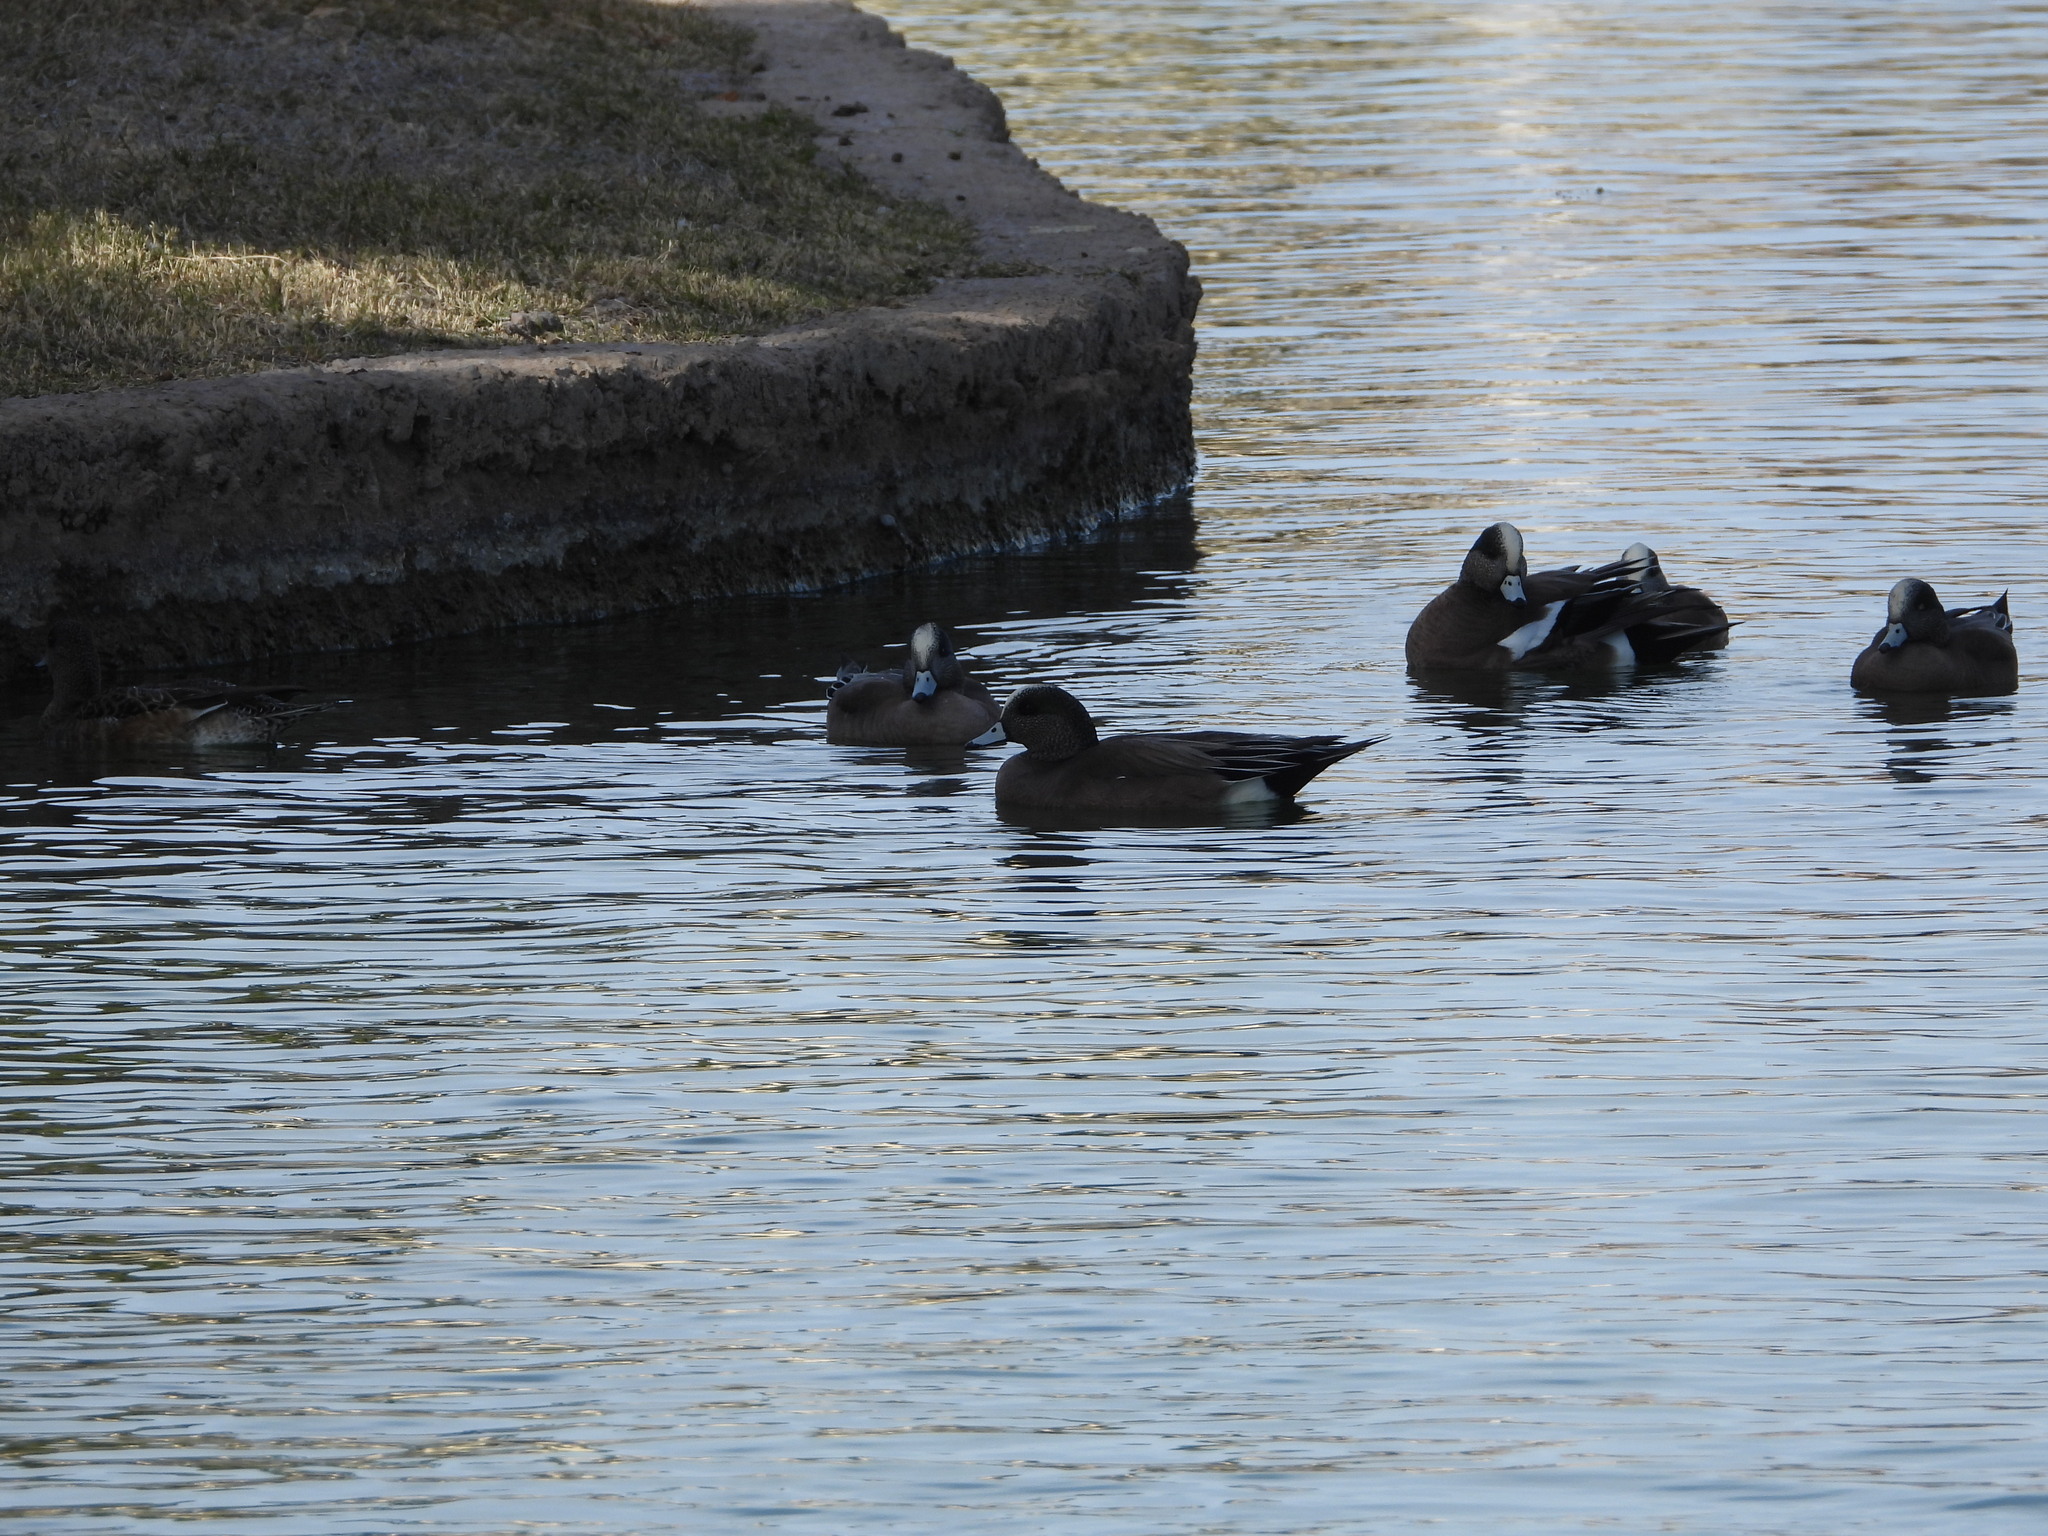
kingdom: Animalia
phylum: Chordata
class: Aves
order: Anseriformes
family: Anatidae
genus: Mareca
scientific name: Mareca americana
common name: American wigeon
